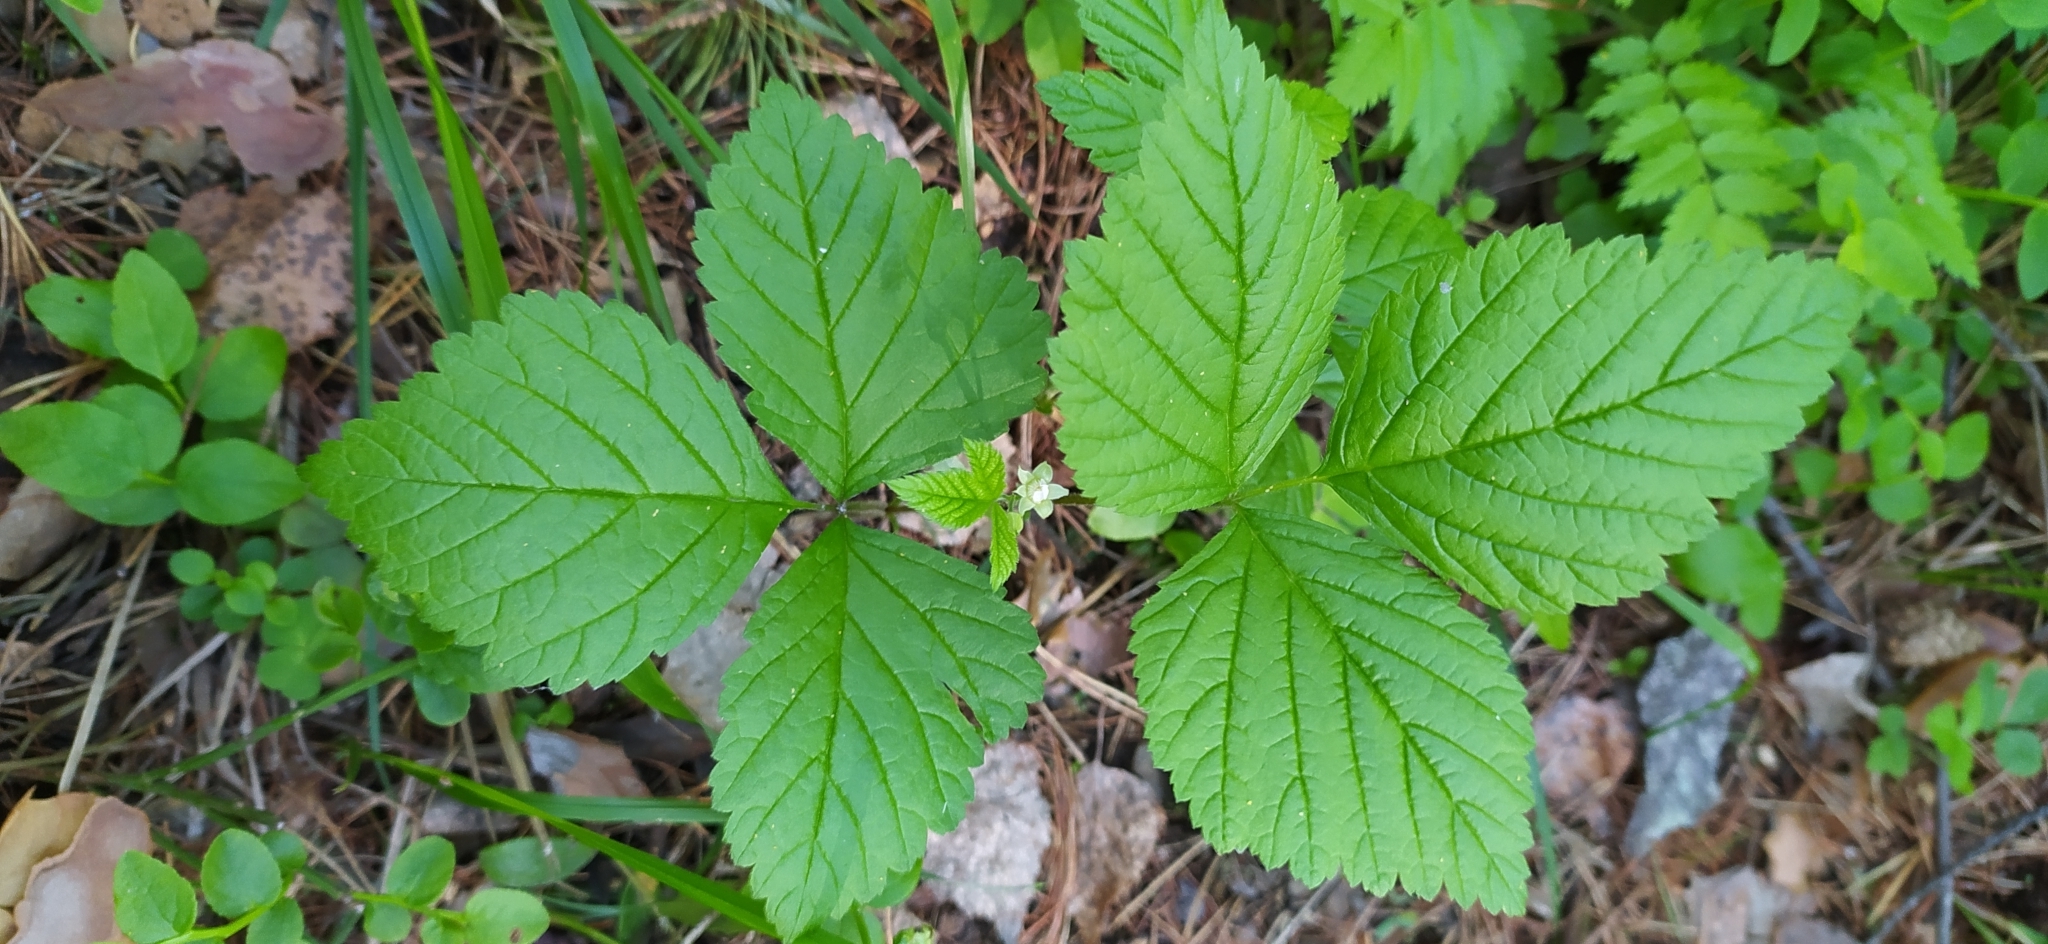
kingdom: Plantae
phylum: Tracheophyta
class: Magnoliopsida
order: Rosales
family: Rosaceae
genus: Rubus
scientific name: Rubus saxatilis
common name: Stone bramble
